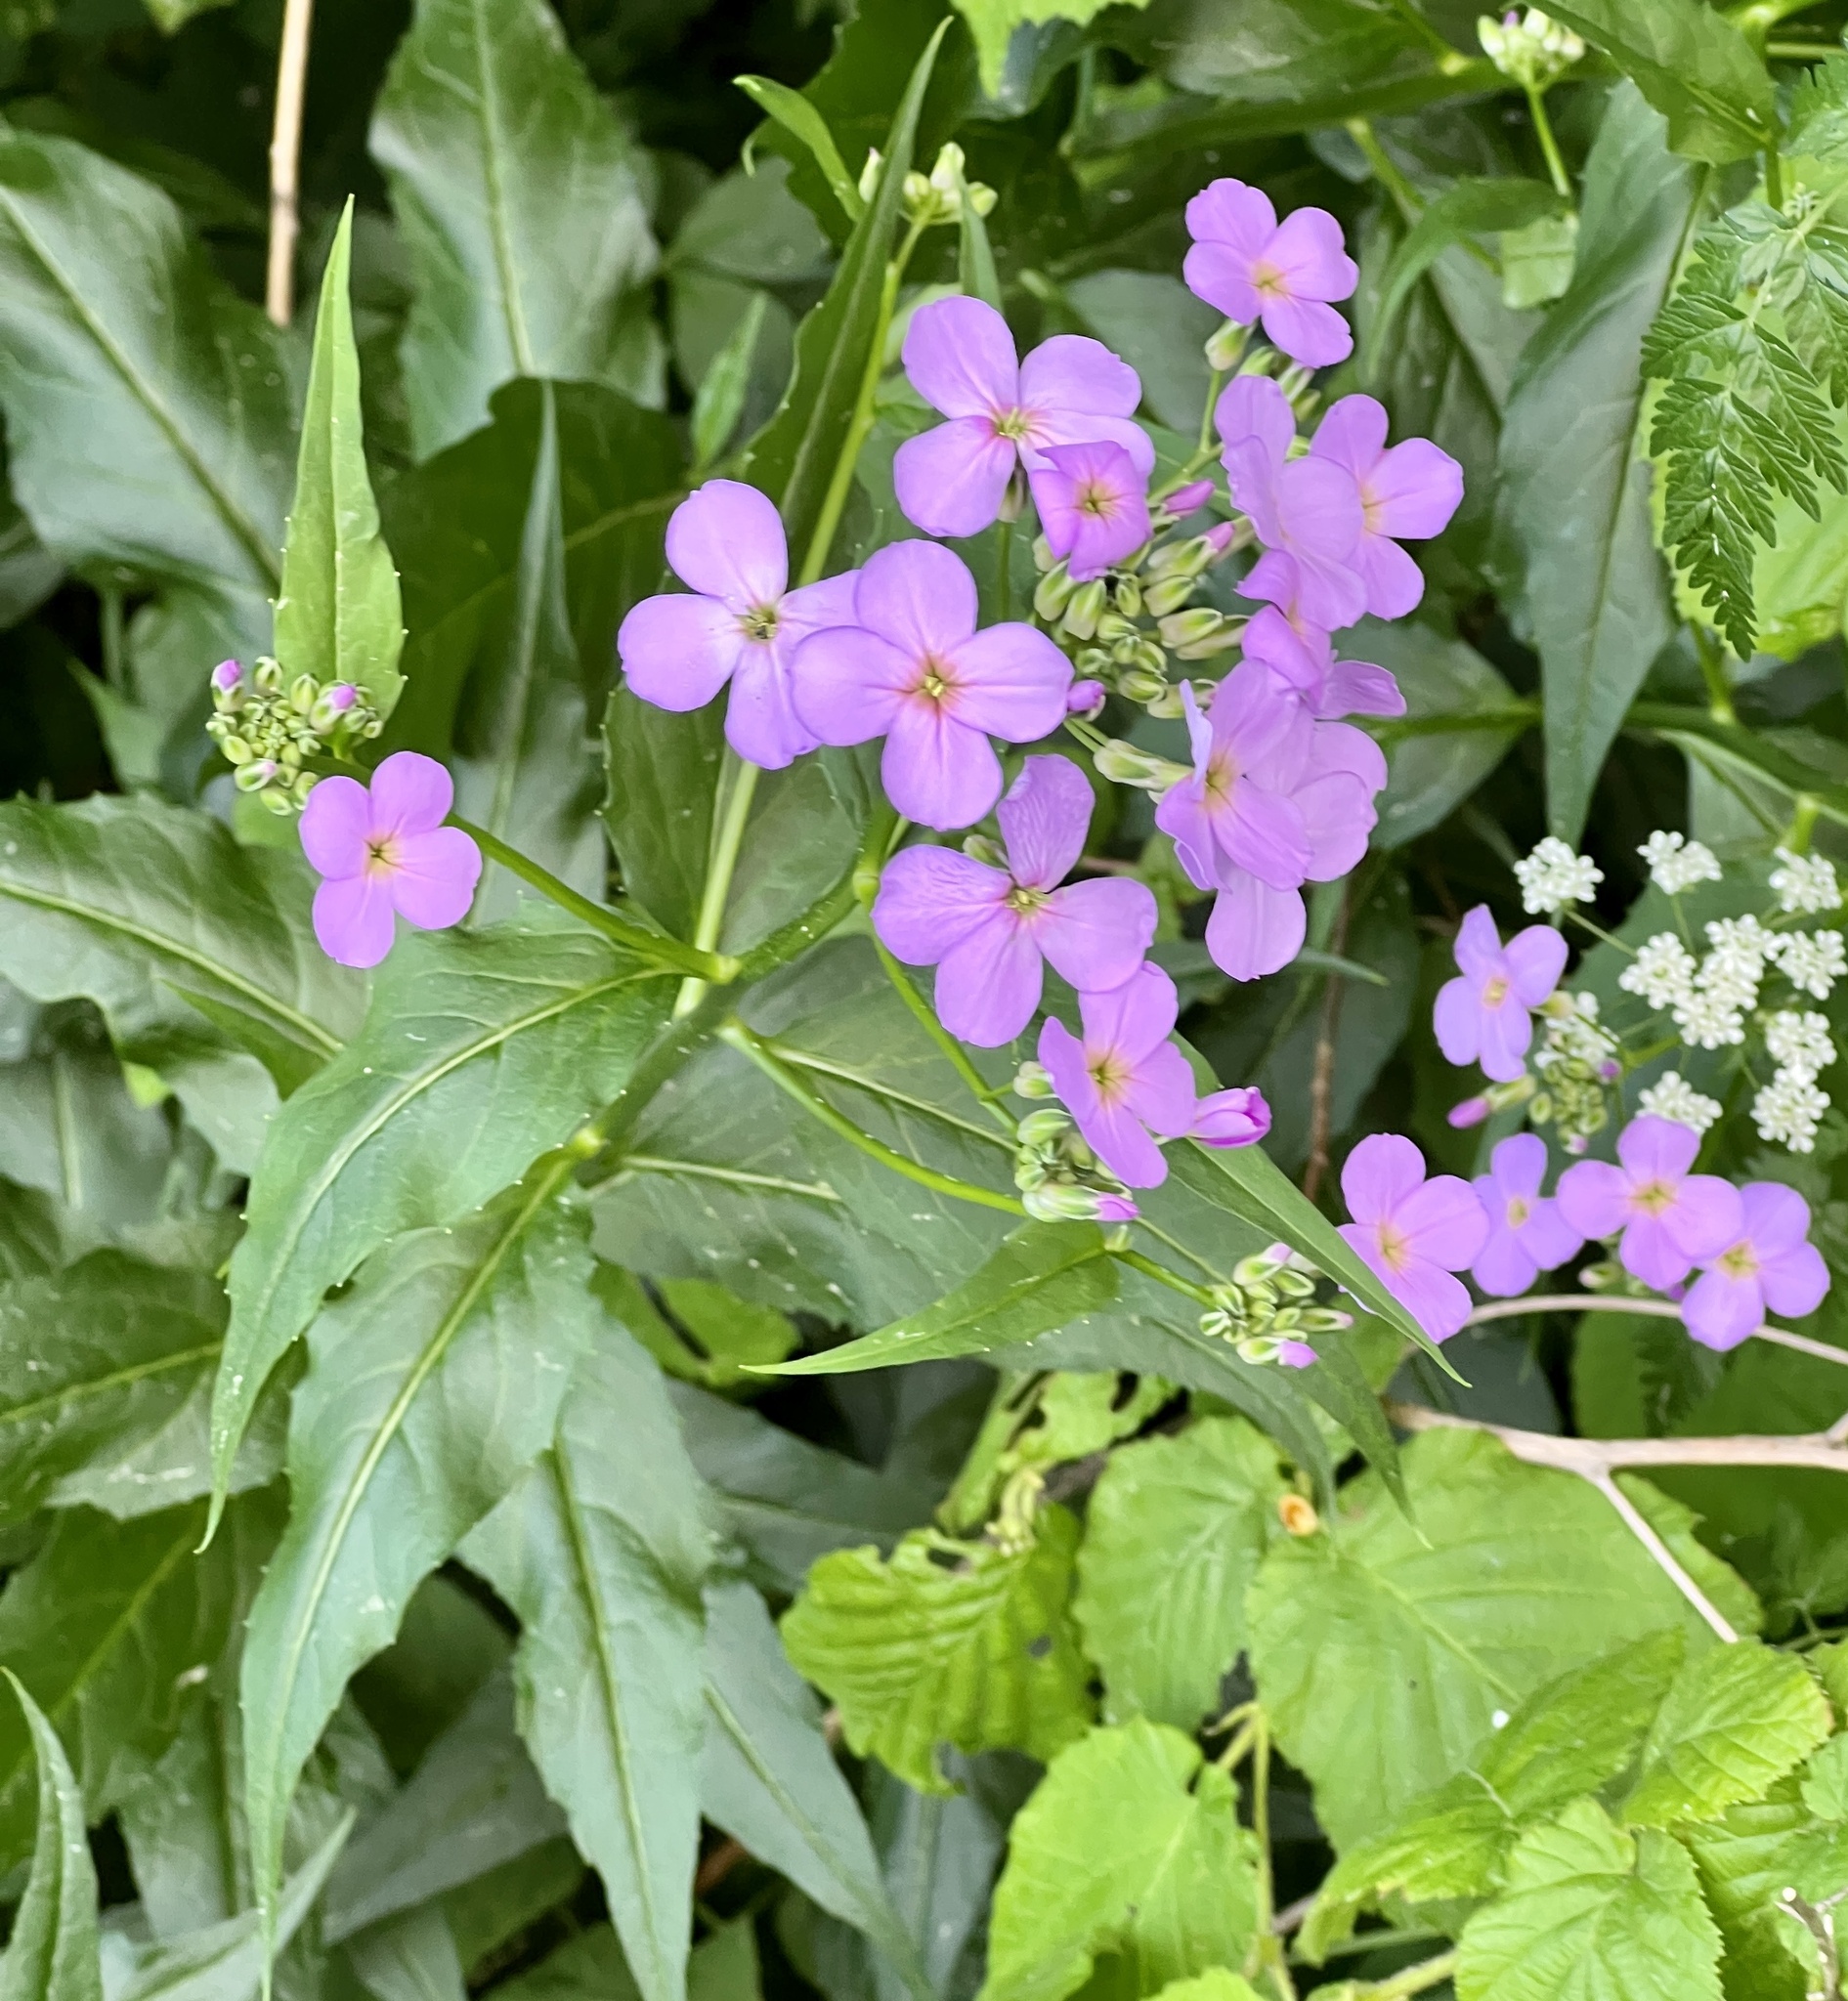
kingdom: Plantae
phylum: Tracheophyta
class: Magnoliopsida
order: Brassicales
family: Brassicaceae
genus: Hesperis
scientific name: Hesperis matronalis
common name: Dame's-violet
